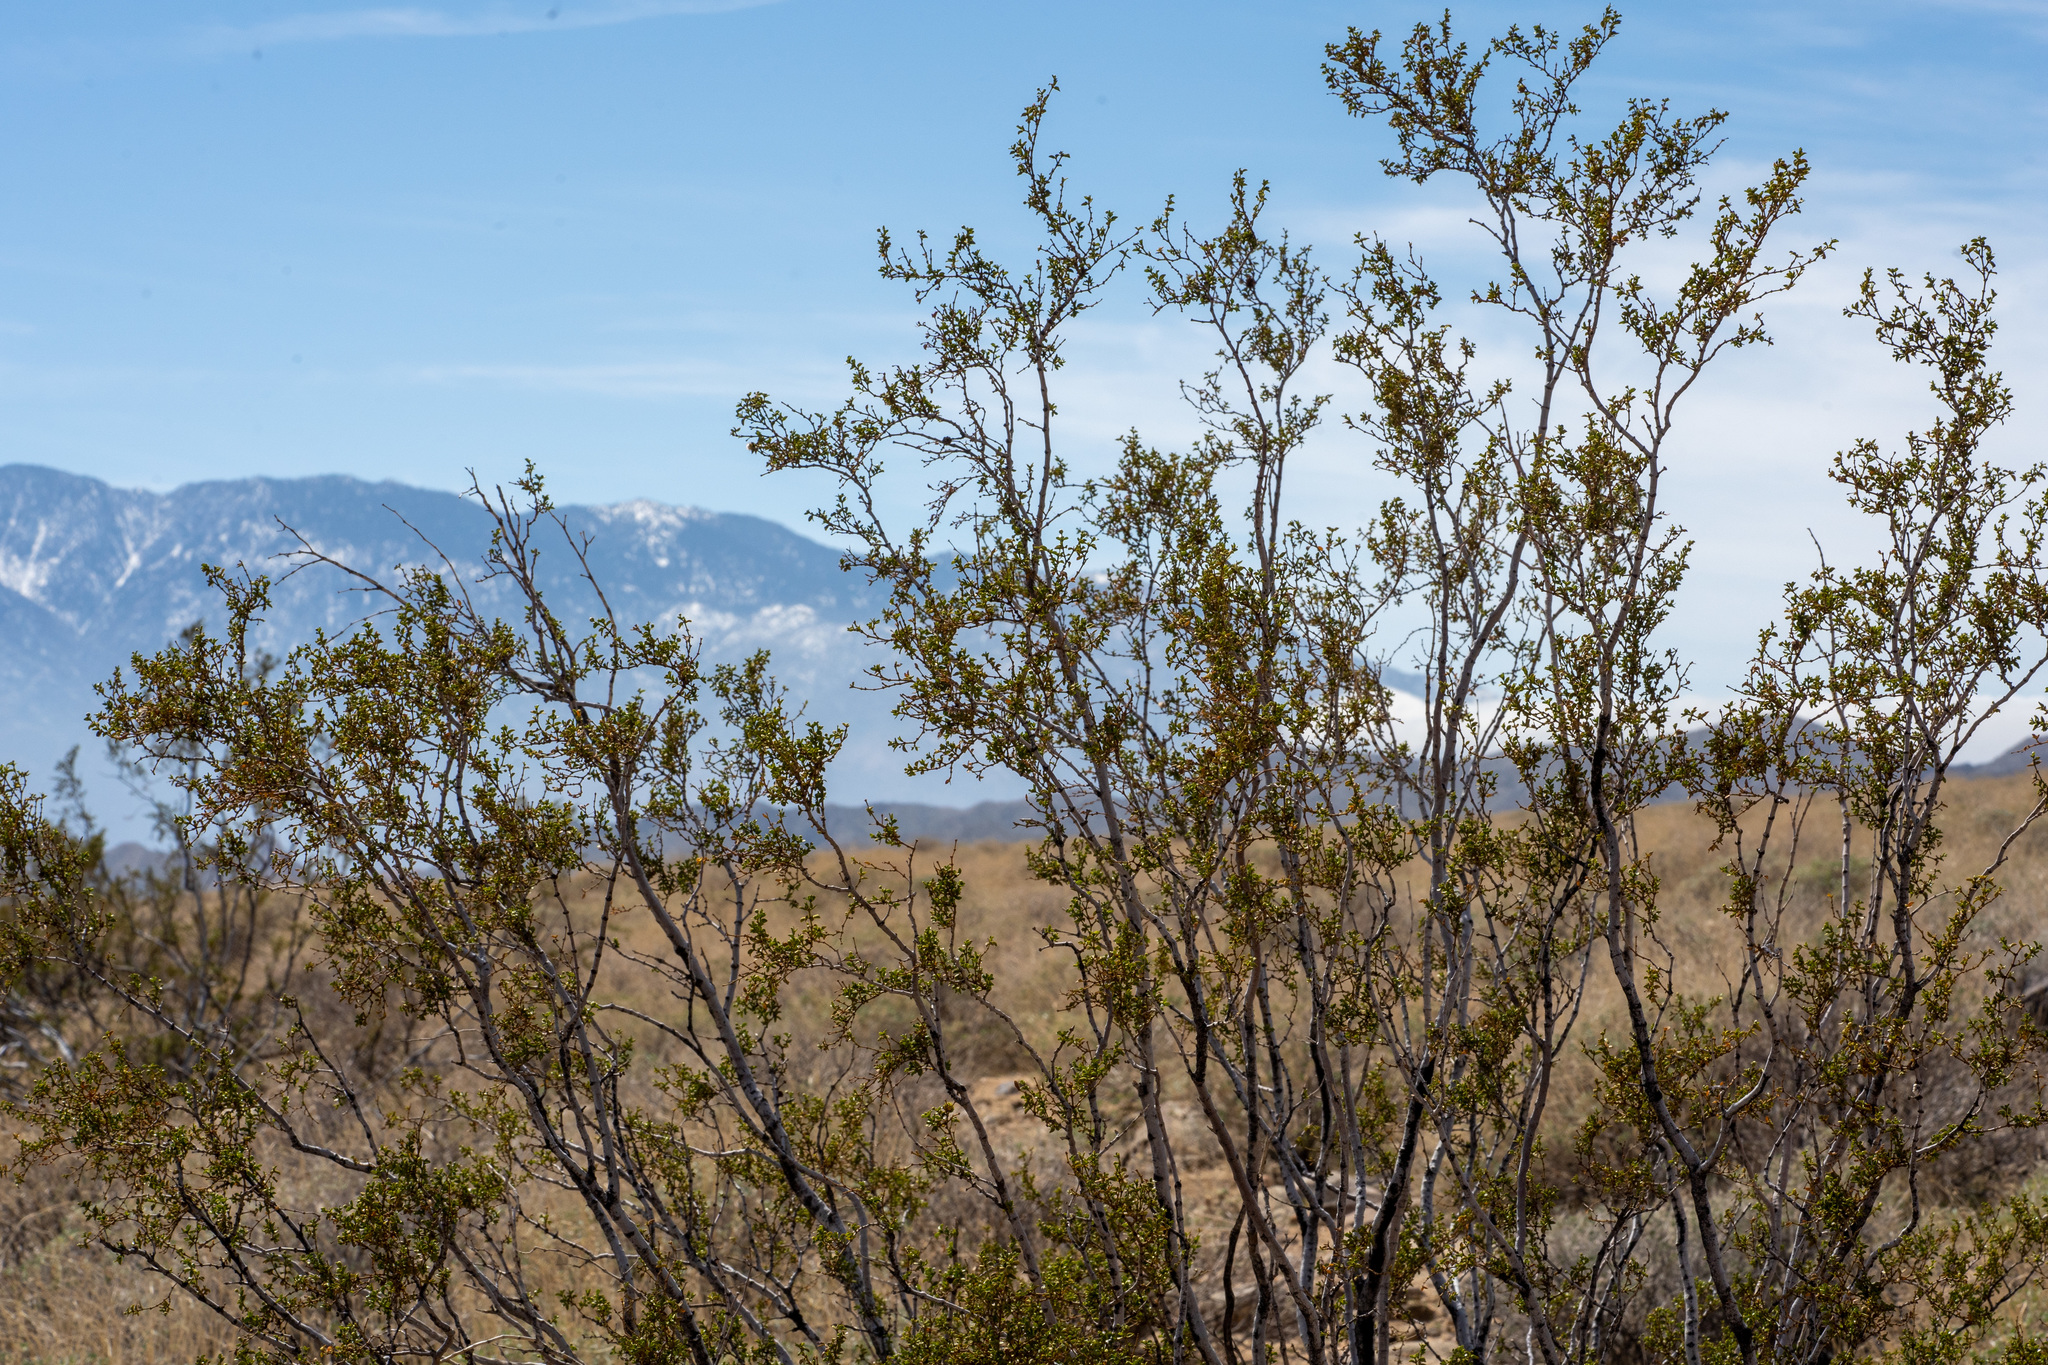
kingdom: Plantae
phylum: Tracheophyta
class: Magnoliopsida
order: Zygophyllales
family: Zygophyllaceae
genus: Larrea
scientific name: Larrea tridentata
